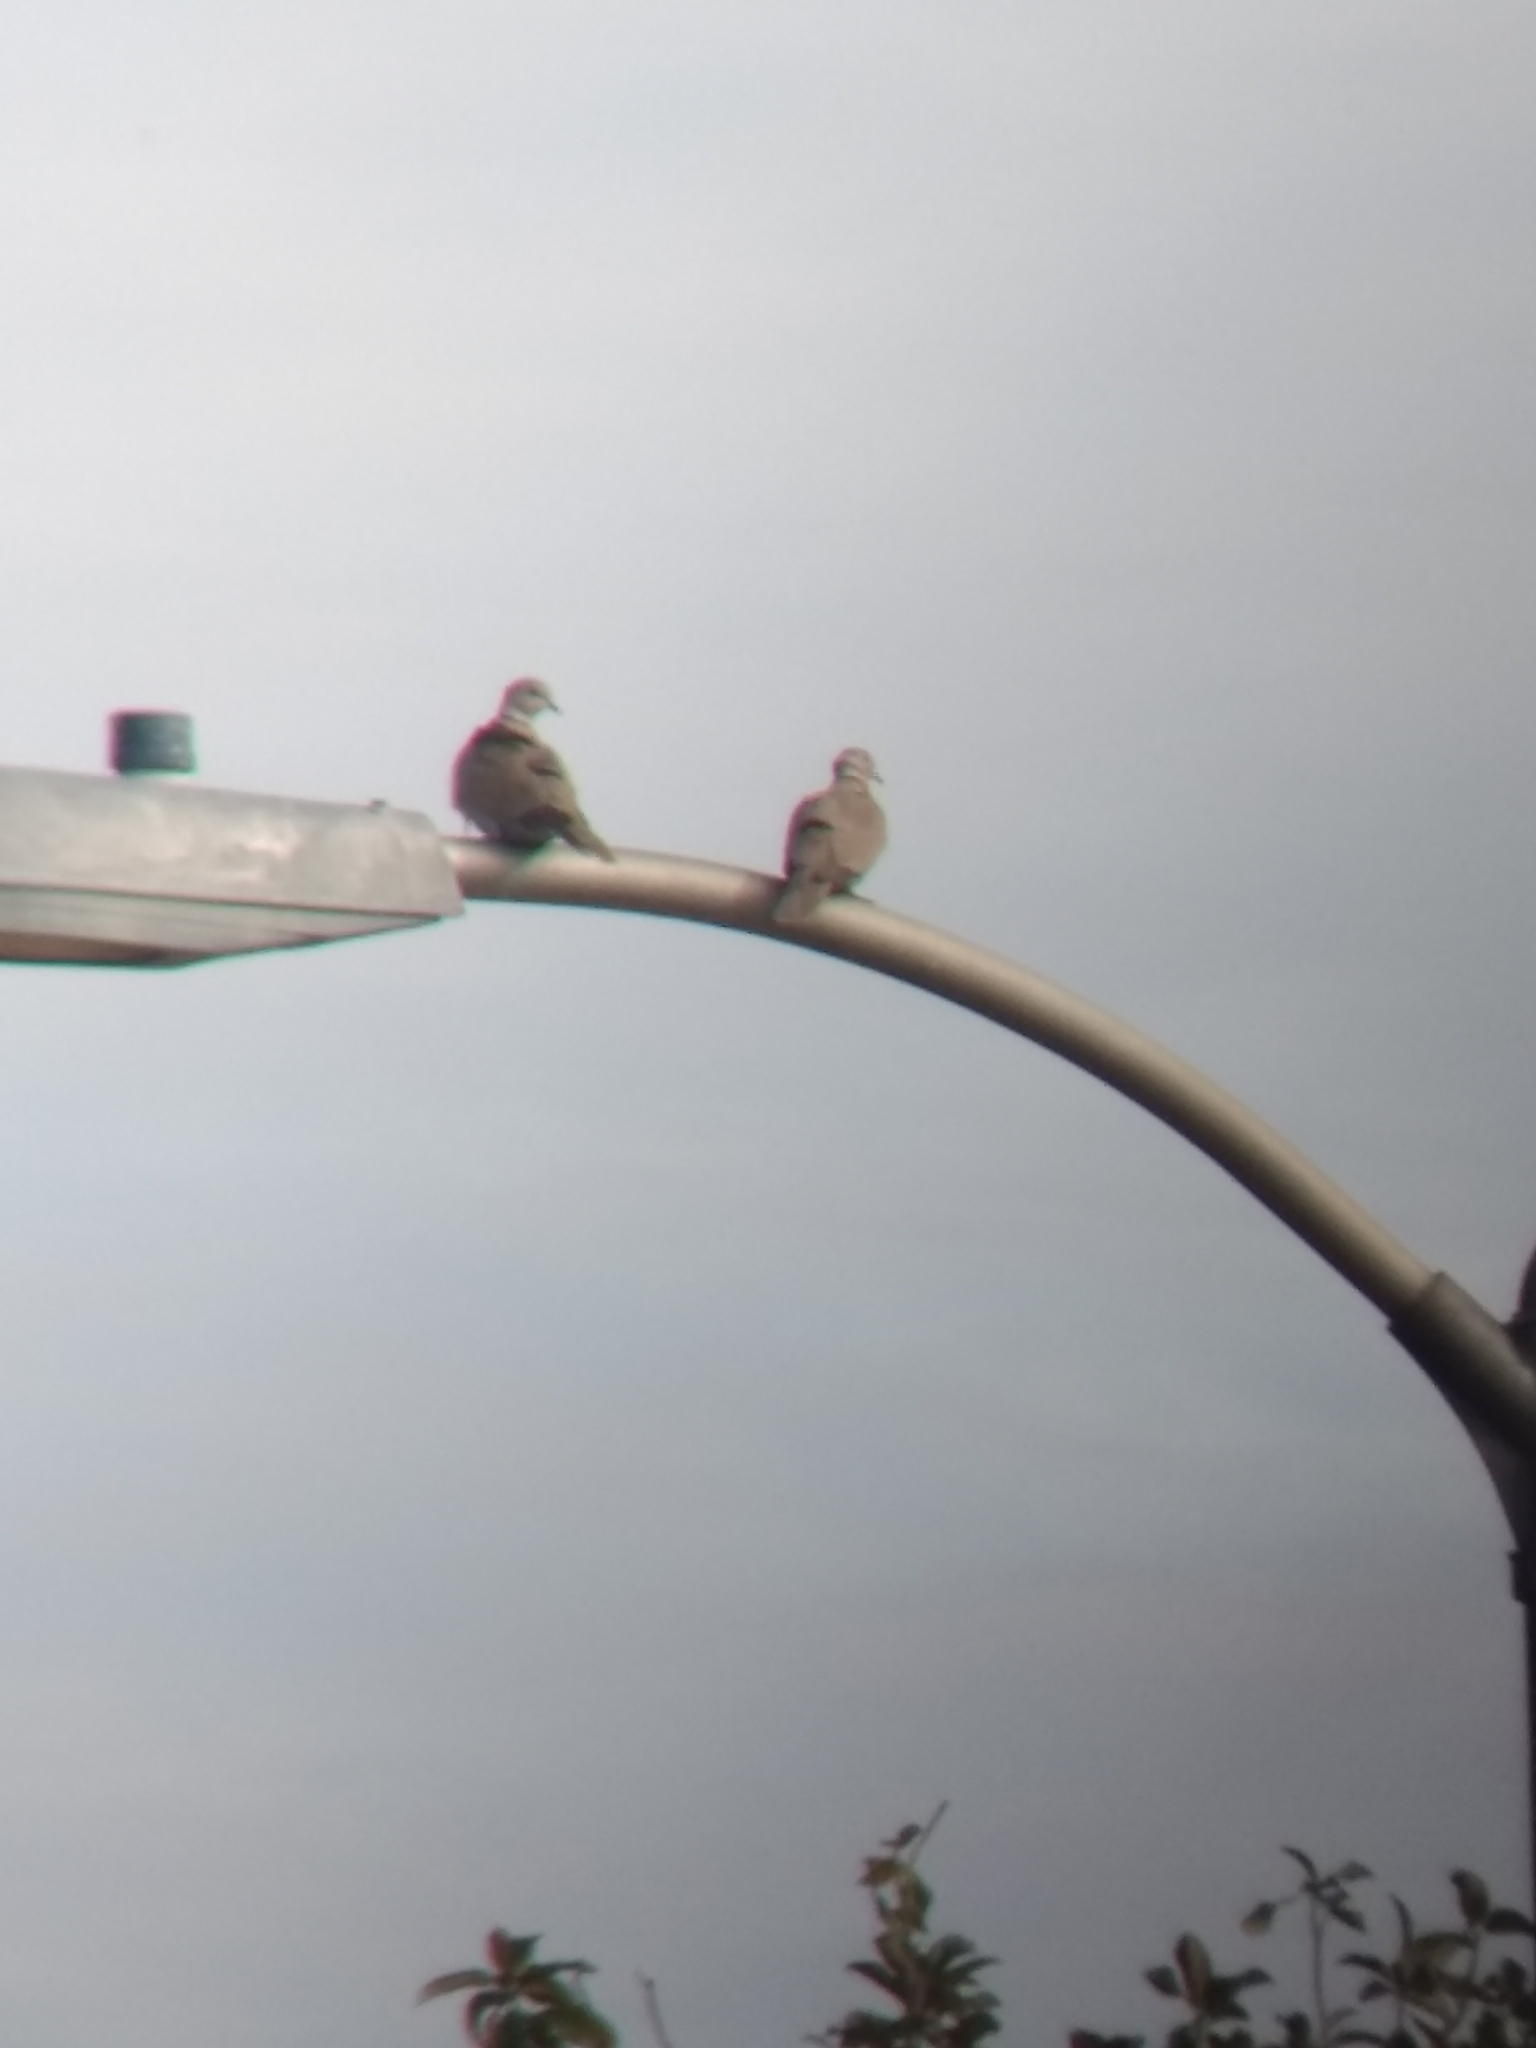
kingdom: Animalia
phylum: Chordata
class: Aves
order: Columbiformes
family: Columbidae
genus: Streptopelia
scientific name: Streptopelia decaocto
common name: Eurasian collared dove
